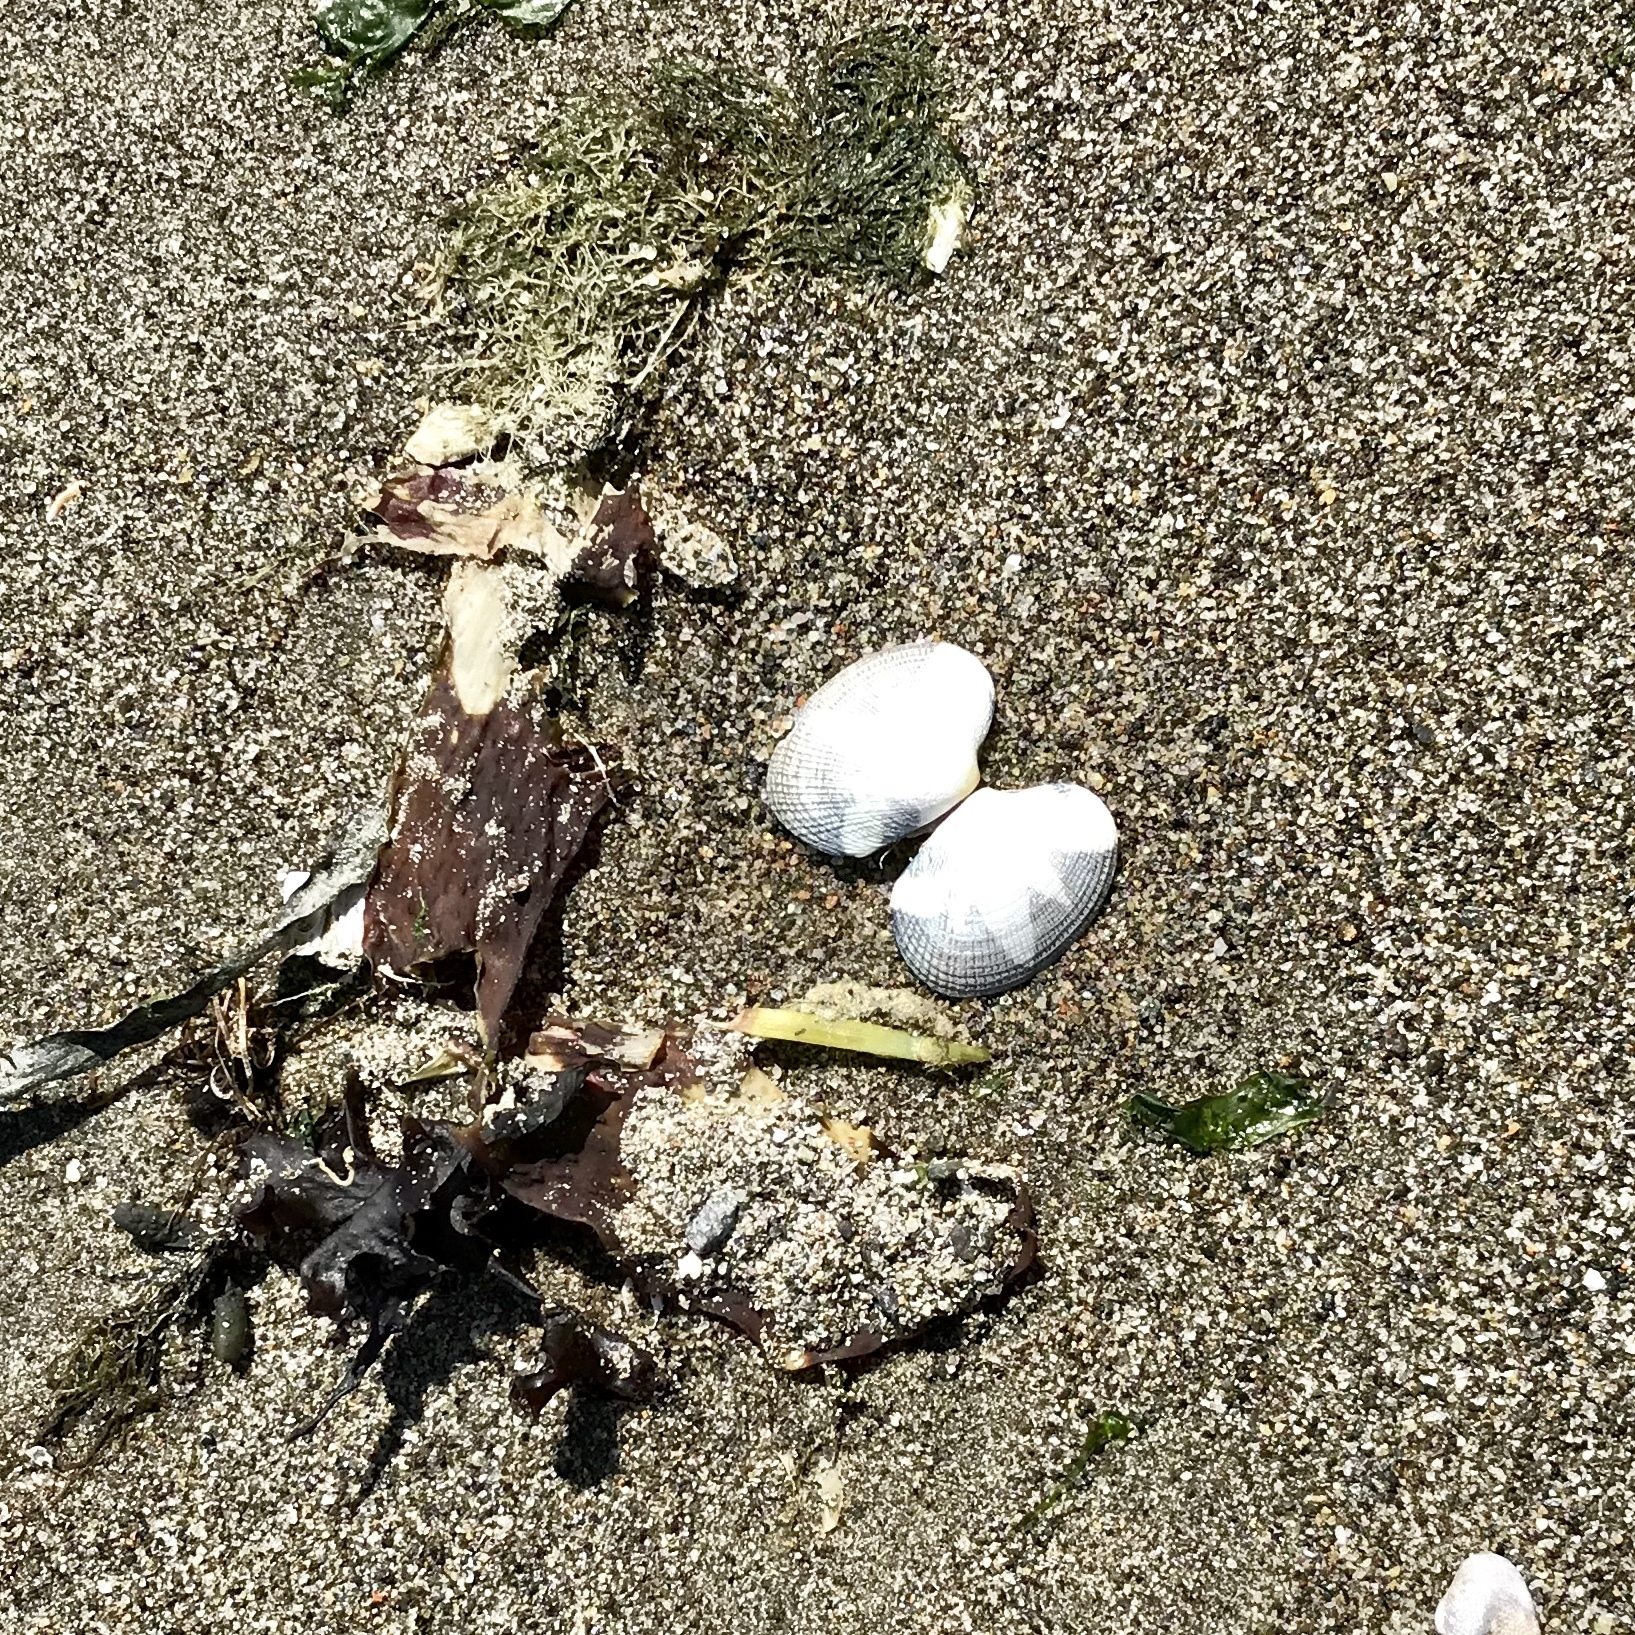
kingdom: Animalia
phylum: Mollusca
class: Bivalvia
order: Venerida
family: Veneridae
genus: Ruditapes
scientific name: Ruditapes philippinarum
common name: Manila clam
